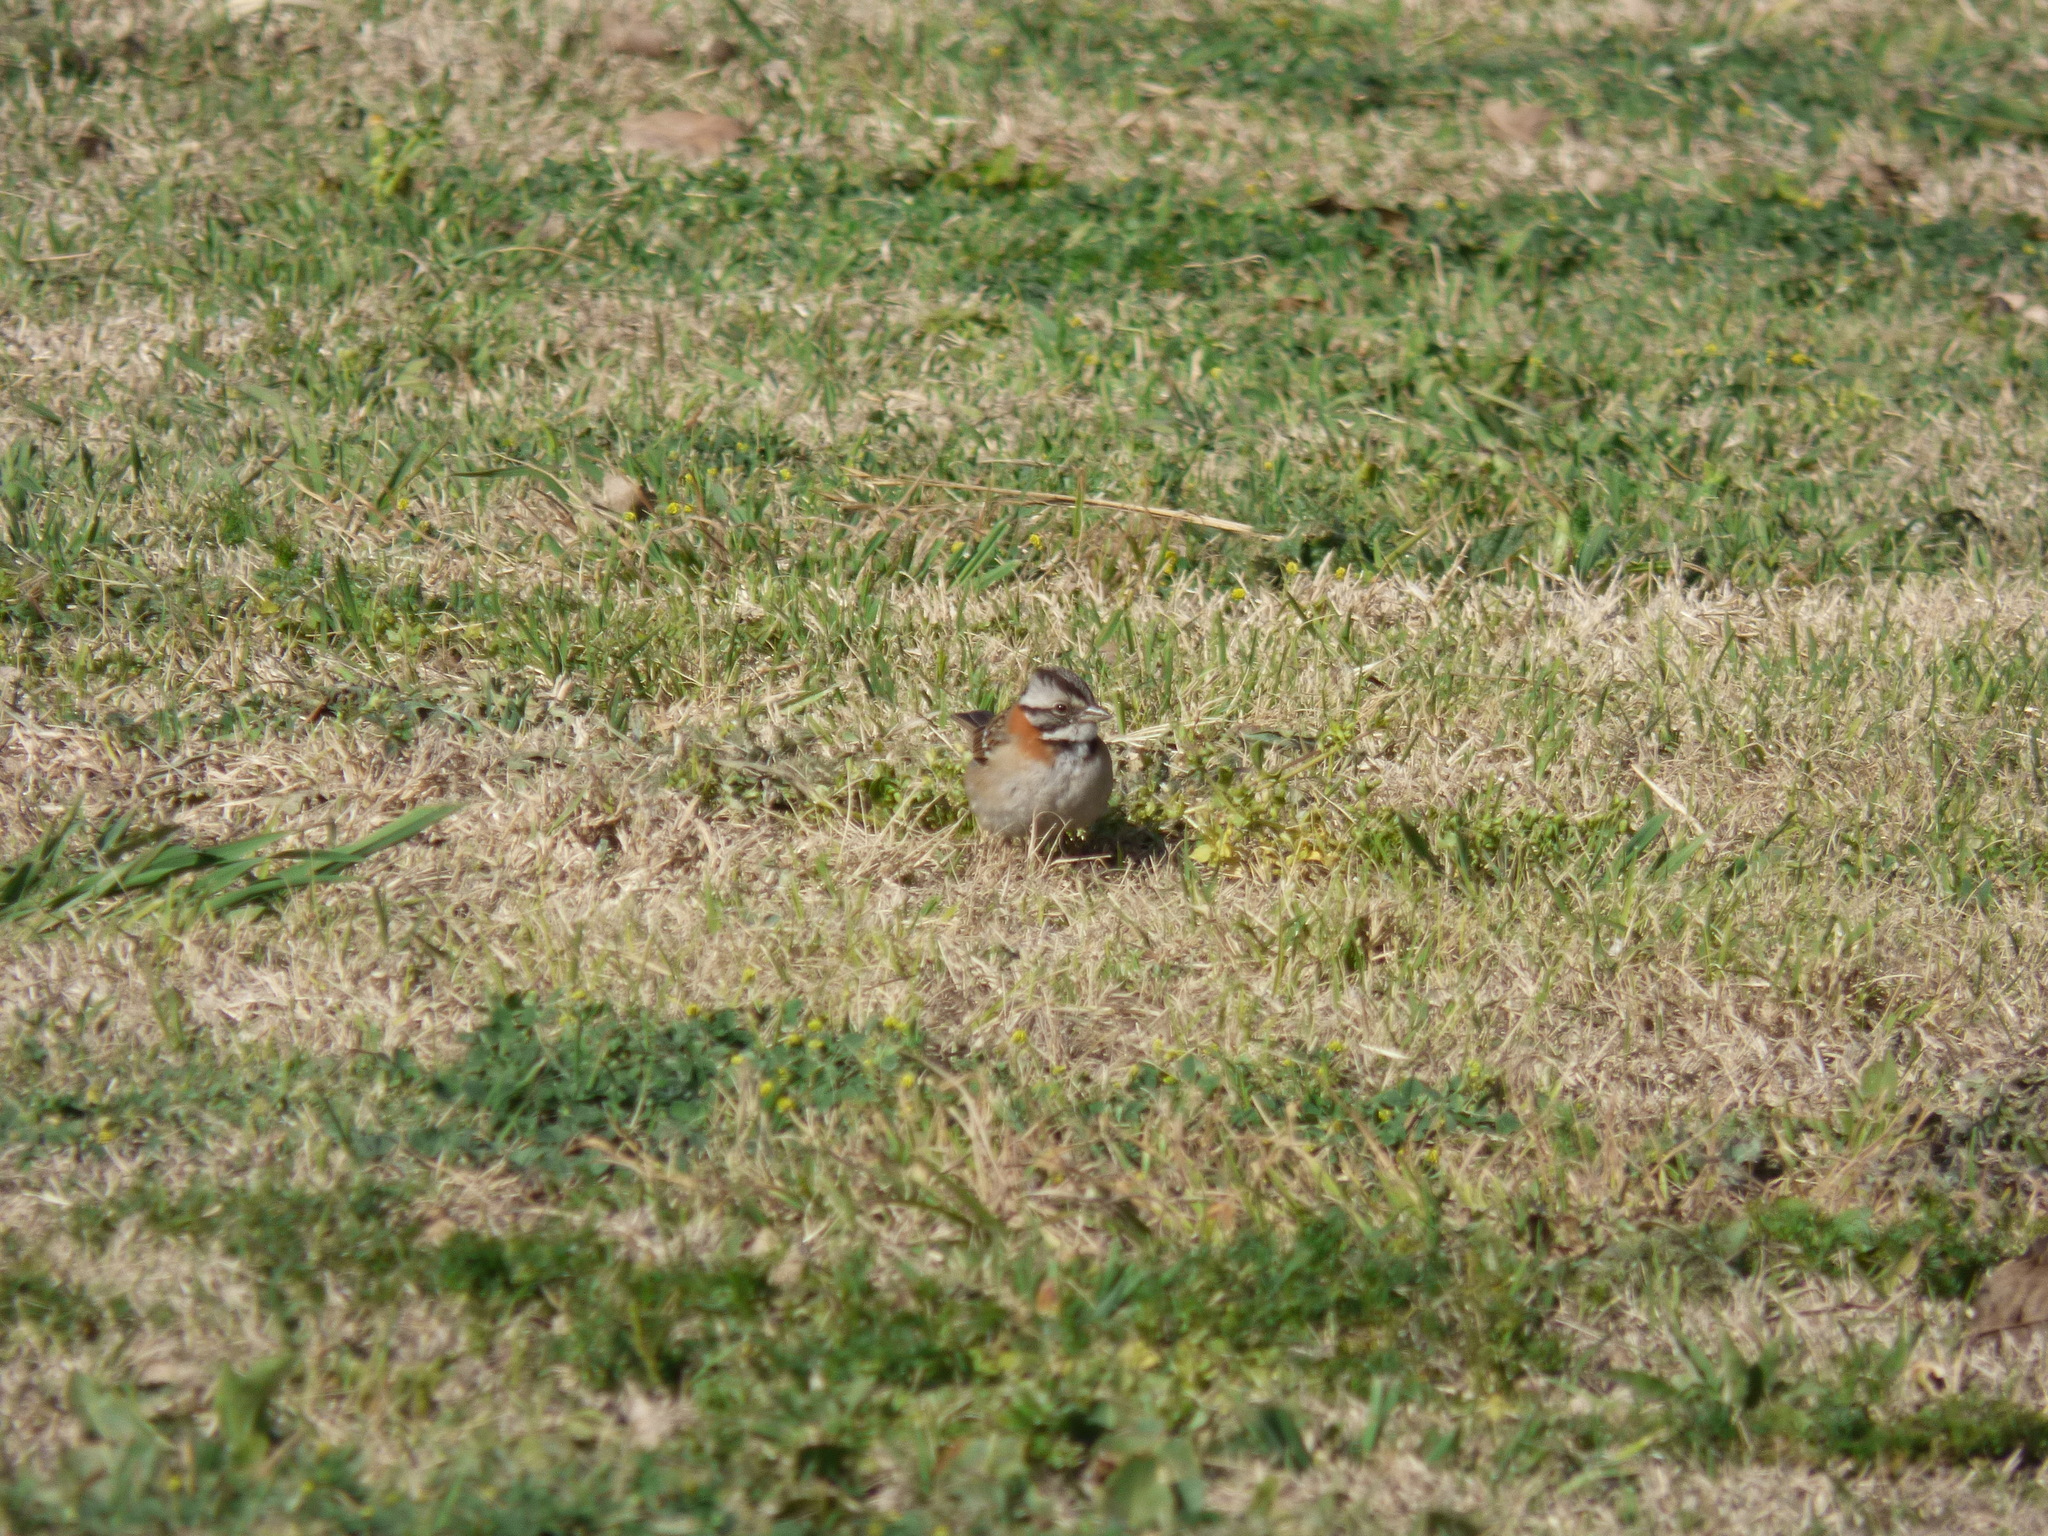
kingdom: Animalia
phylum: Chordata
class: Aves
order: Passeriformes
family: Passerellidae
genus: Zonotrichia
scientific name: Zonotrichia capensis
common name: Rufous-collared sparrow
